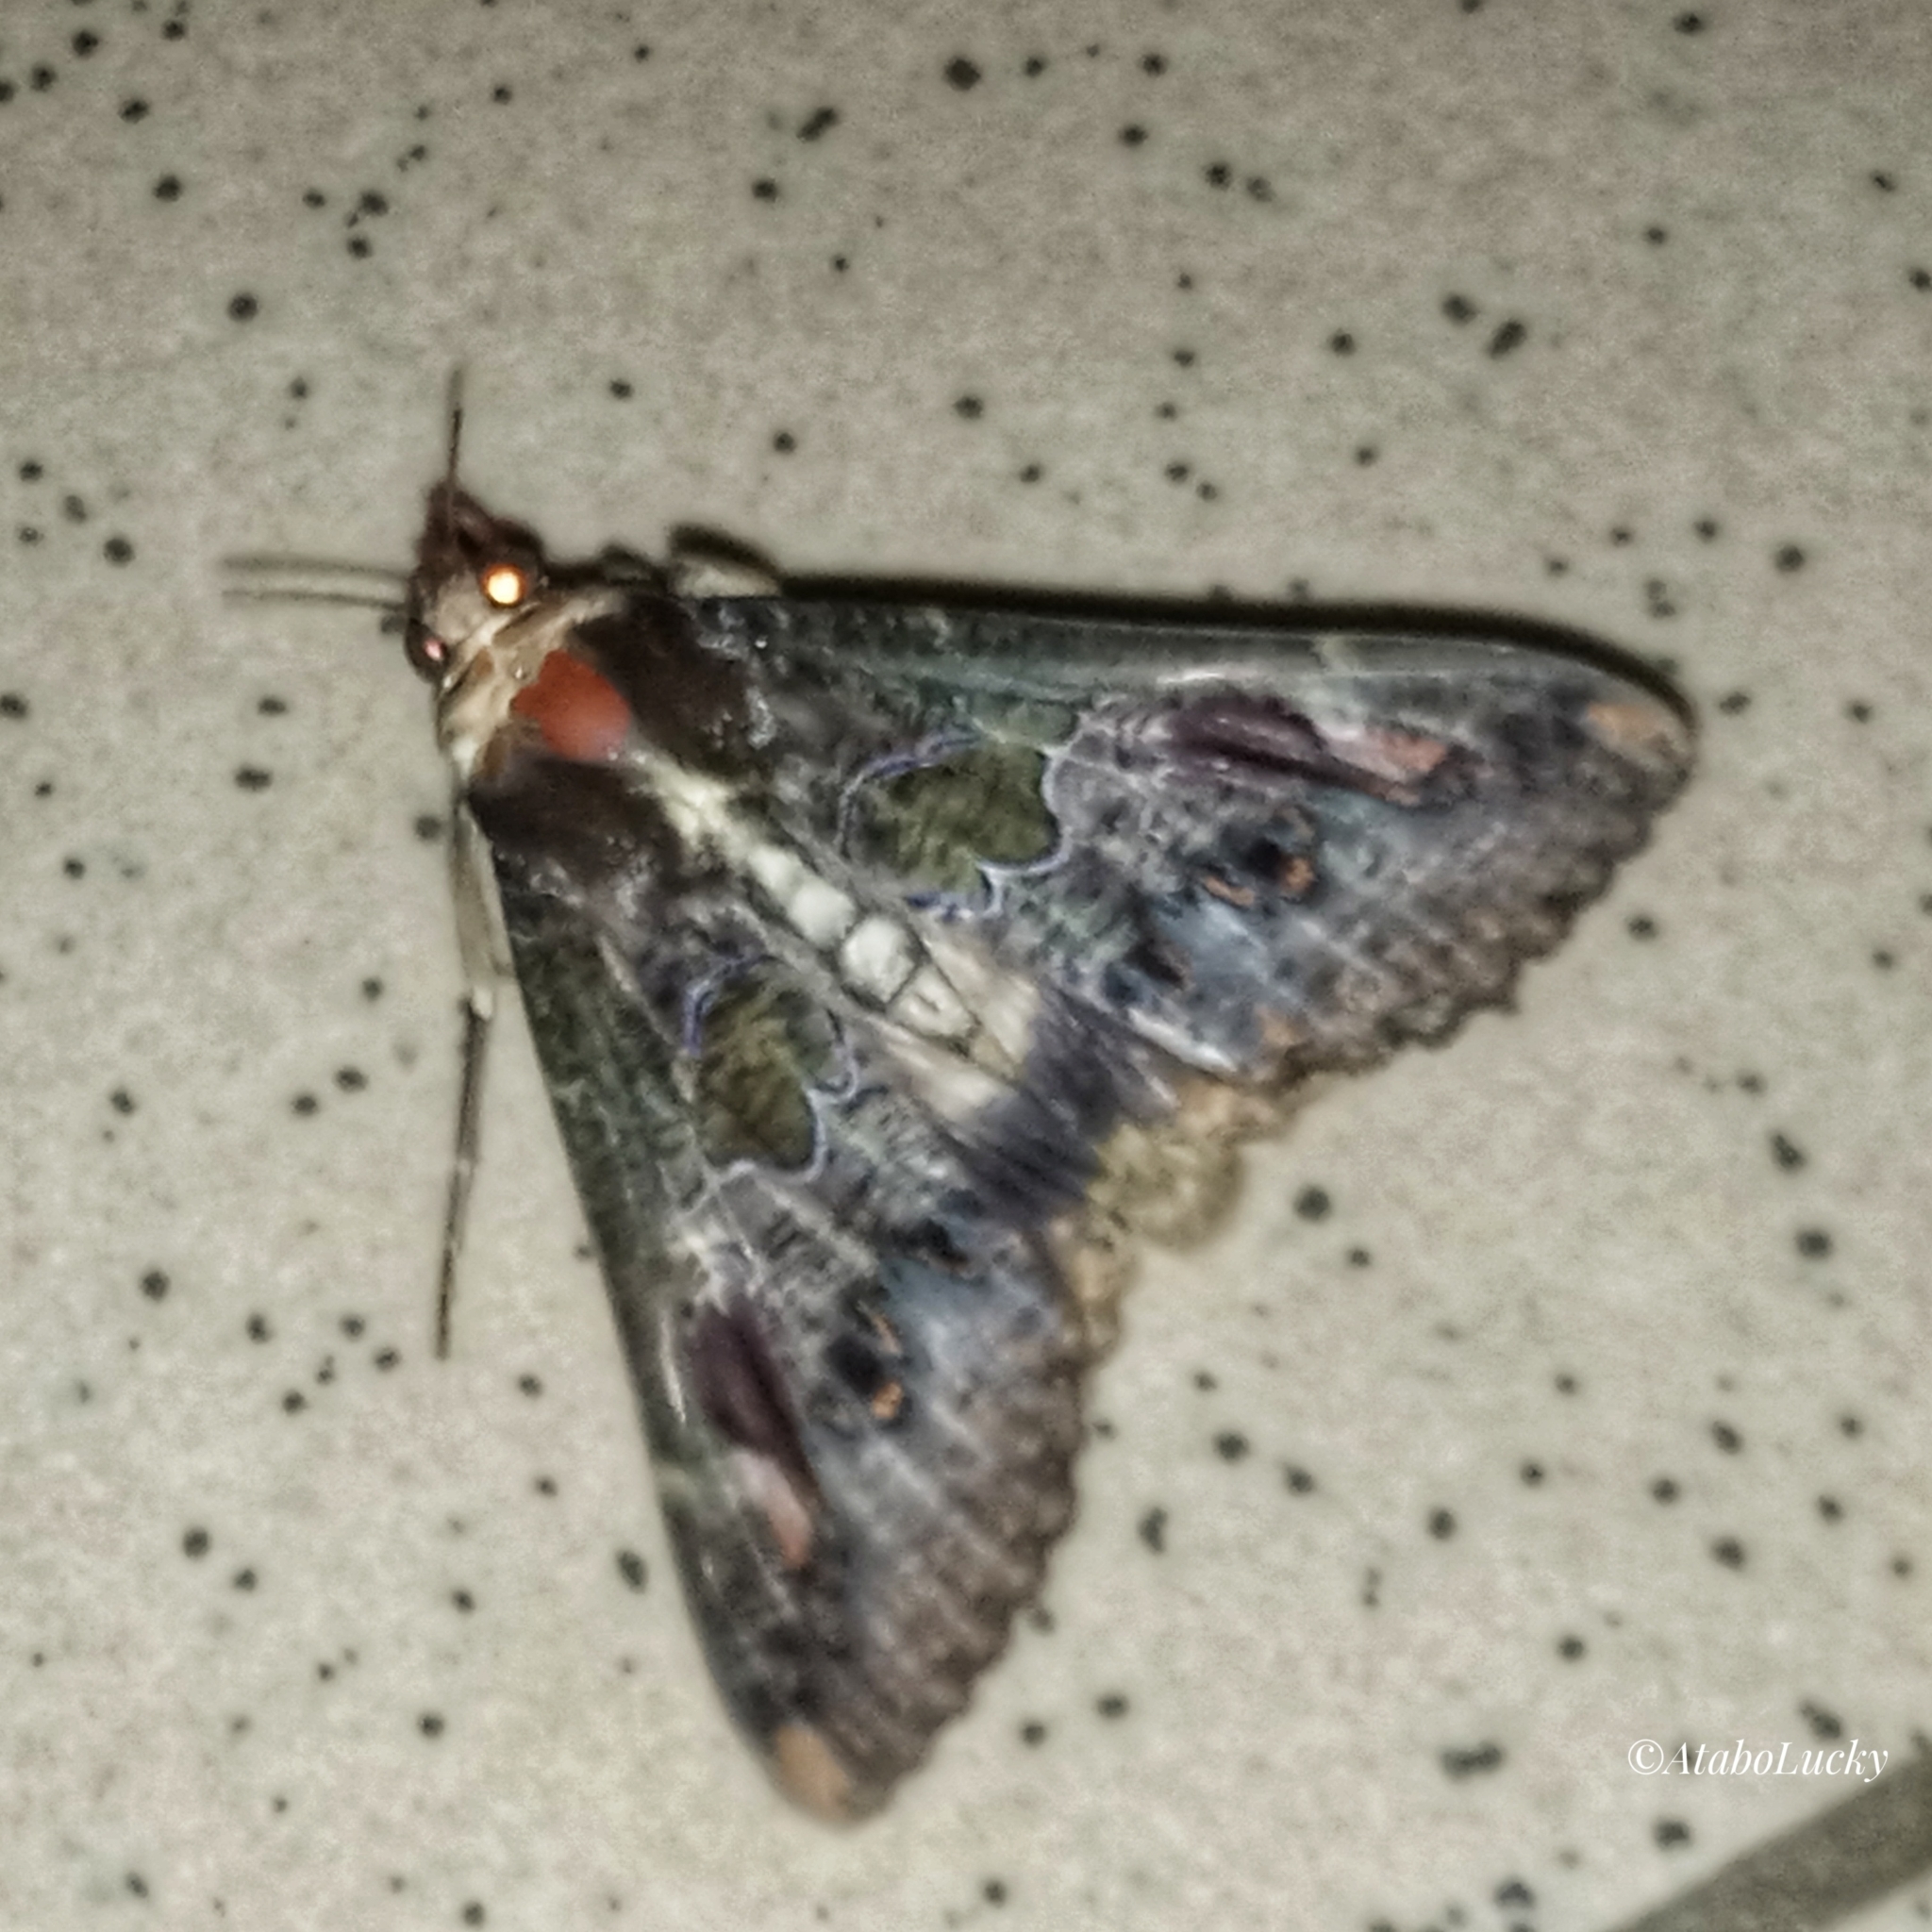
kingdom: Animalia
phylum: Arthropoda
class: Insecta
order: Lepidoptera
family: Erebidae
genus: Sphingomorpha
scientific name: Sphingomorpha chlorea
